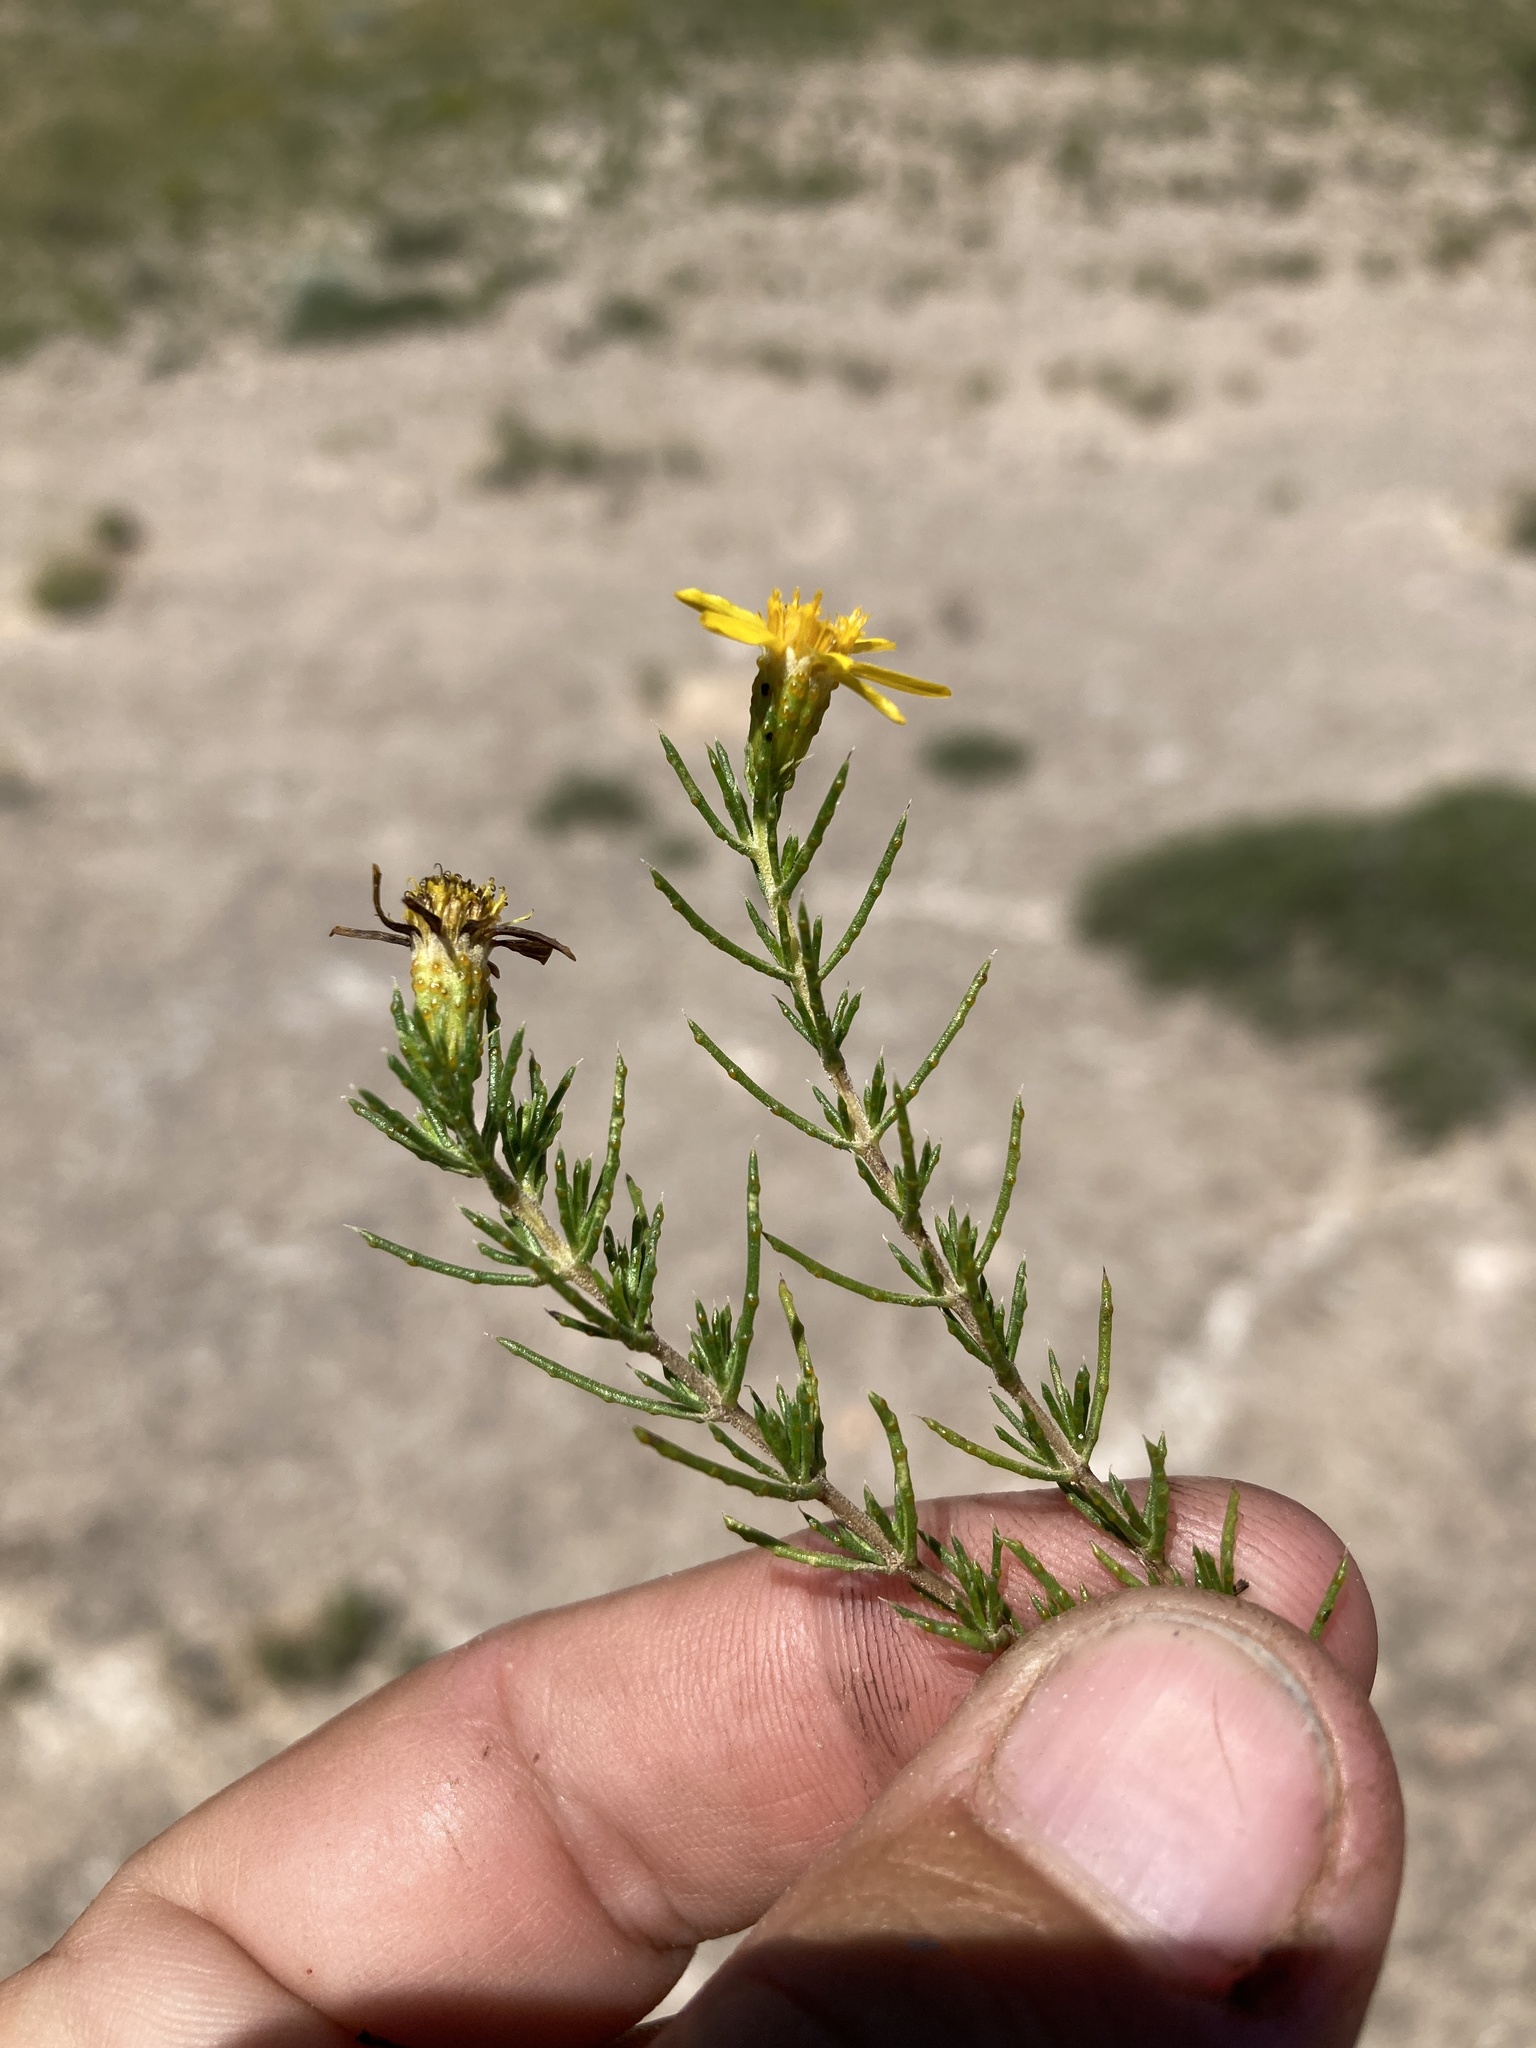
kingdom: Plantae
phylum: Tracheophyta
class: Magnoliopsida
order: Asterales
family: Asteraceae
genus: Thymophylla
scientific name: Thymophylla acerosa
